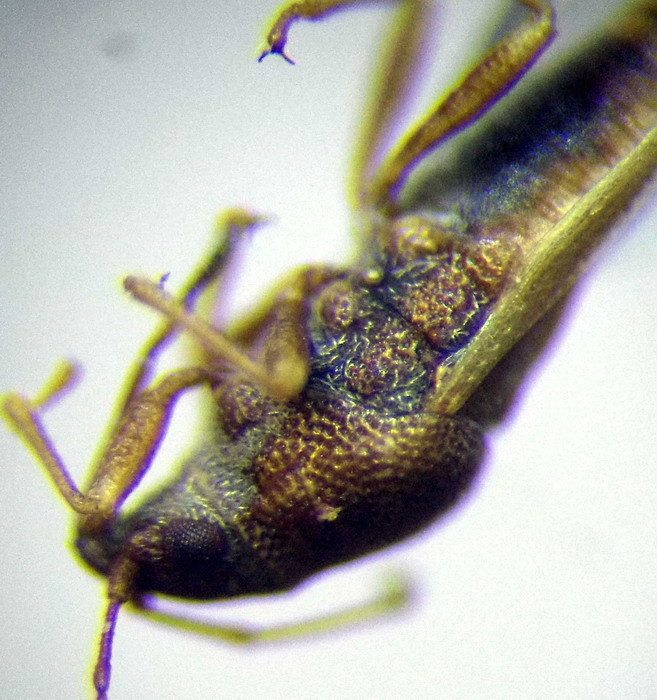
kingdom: Animalia
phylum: Arthropoda
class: Insecta
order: Hemiptera
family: Cymidae
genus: Cymus
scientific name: Cymus claviculus
